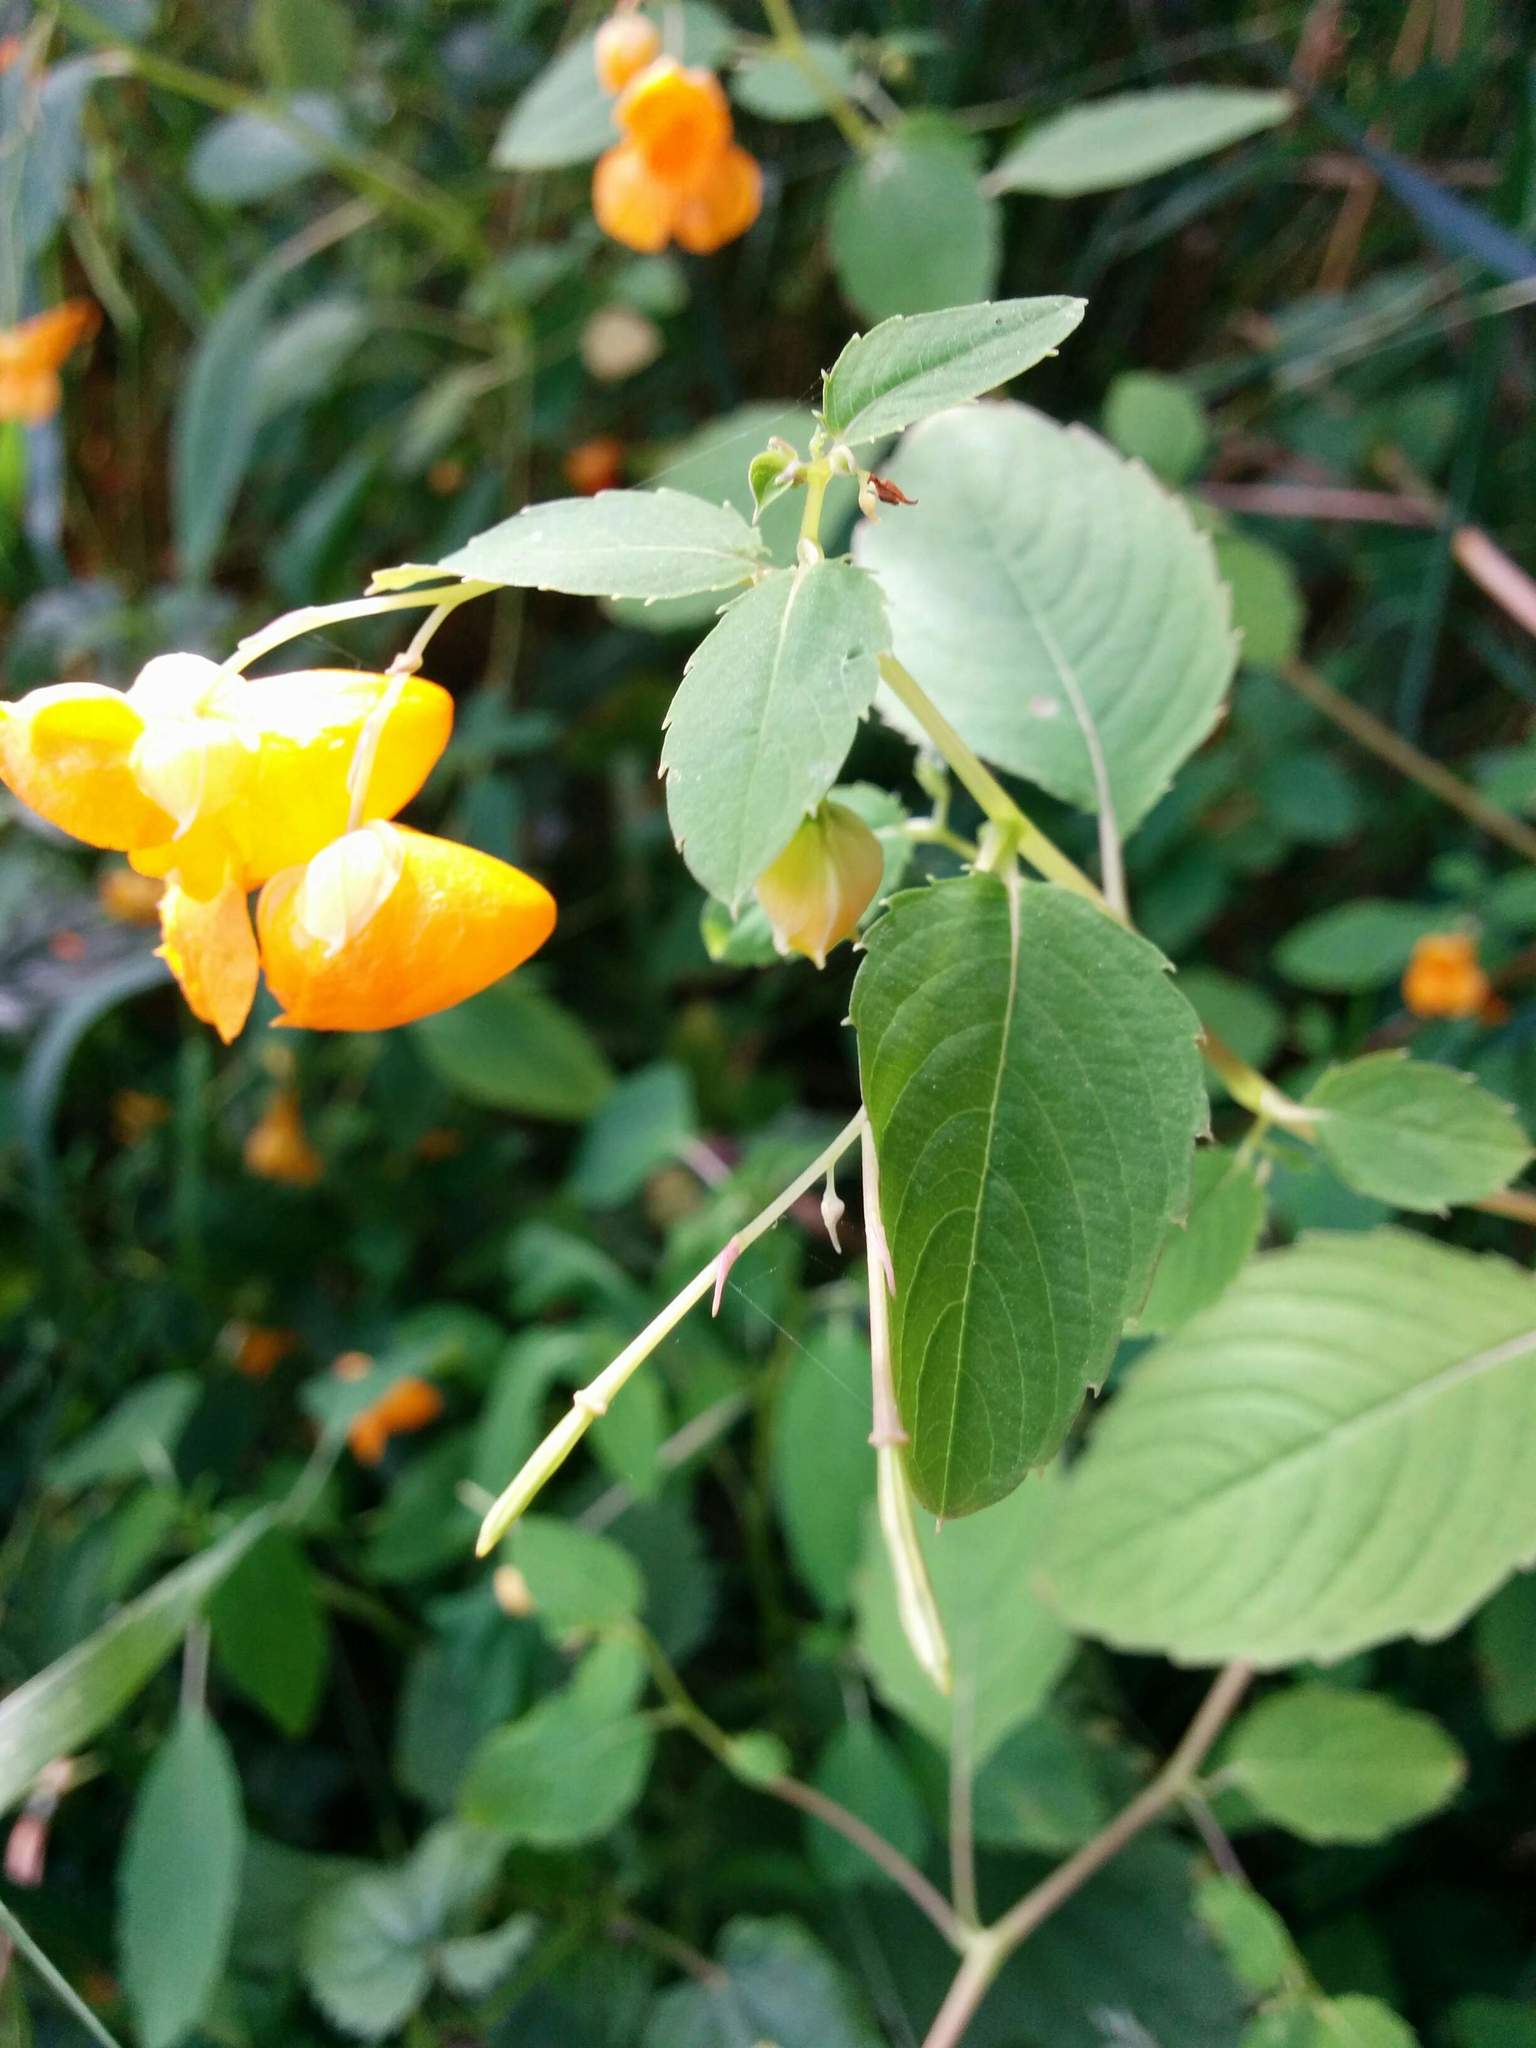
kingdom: Plantae
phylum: Tracheophyta
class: Magnoliopsida
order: Ericales
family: Balsaminaceae
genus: Impatiens
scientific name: Impatiens ecornuta
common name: Spurless jewelweed
